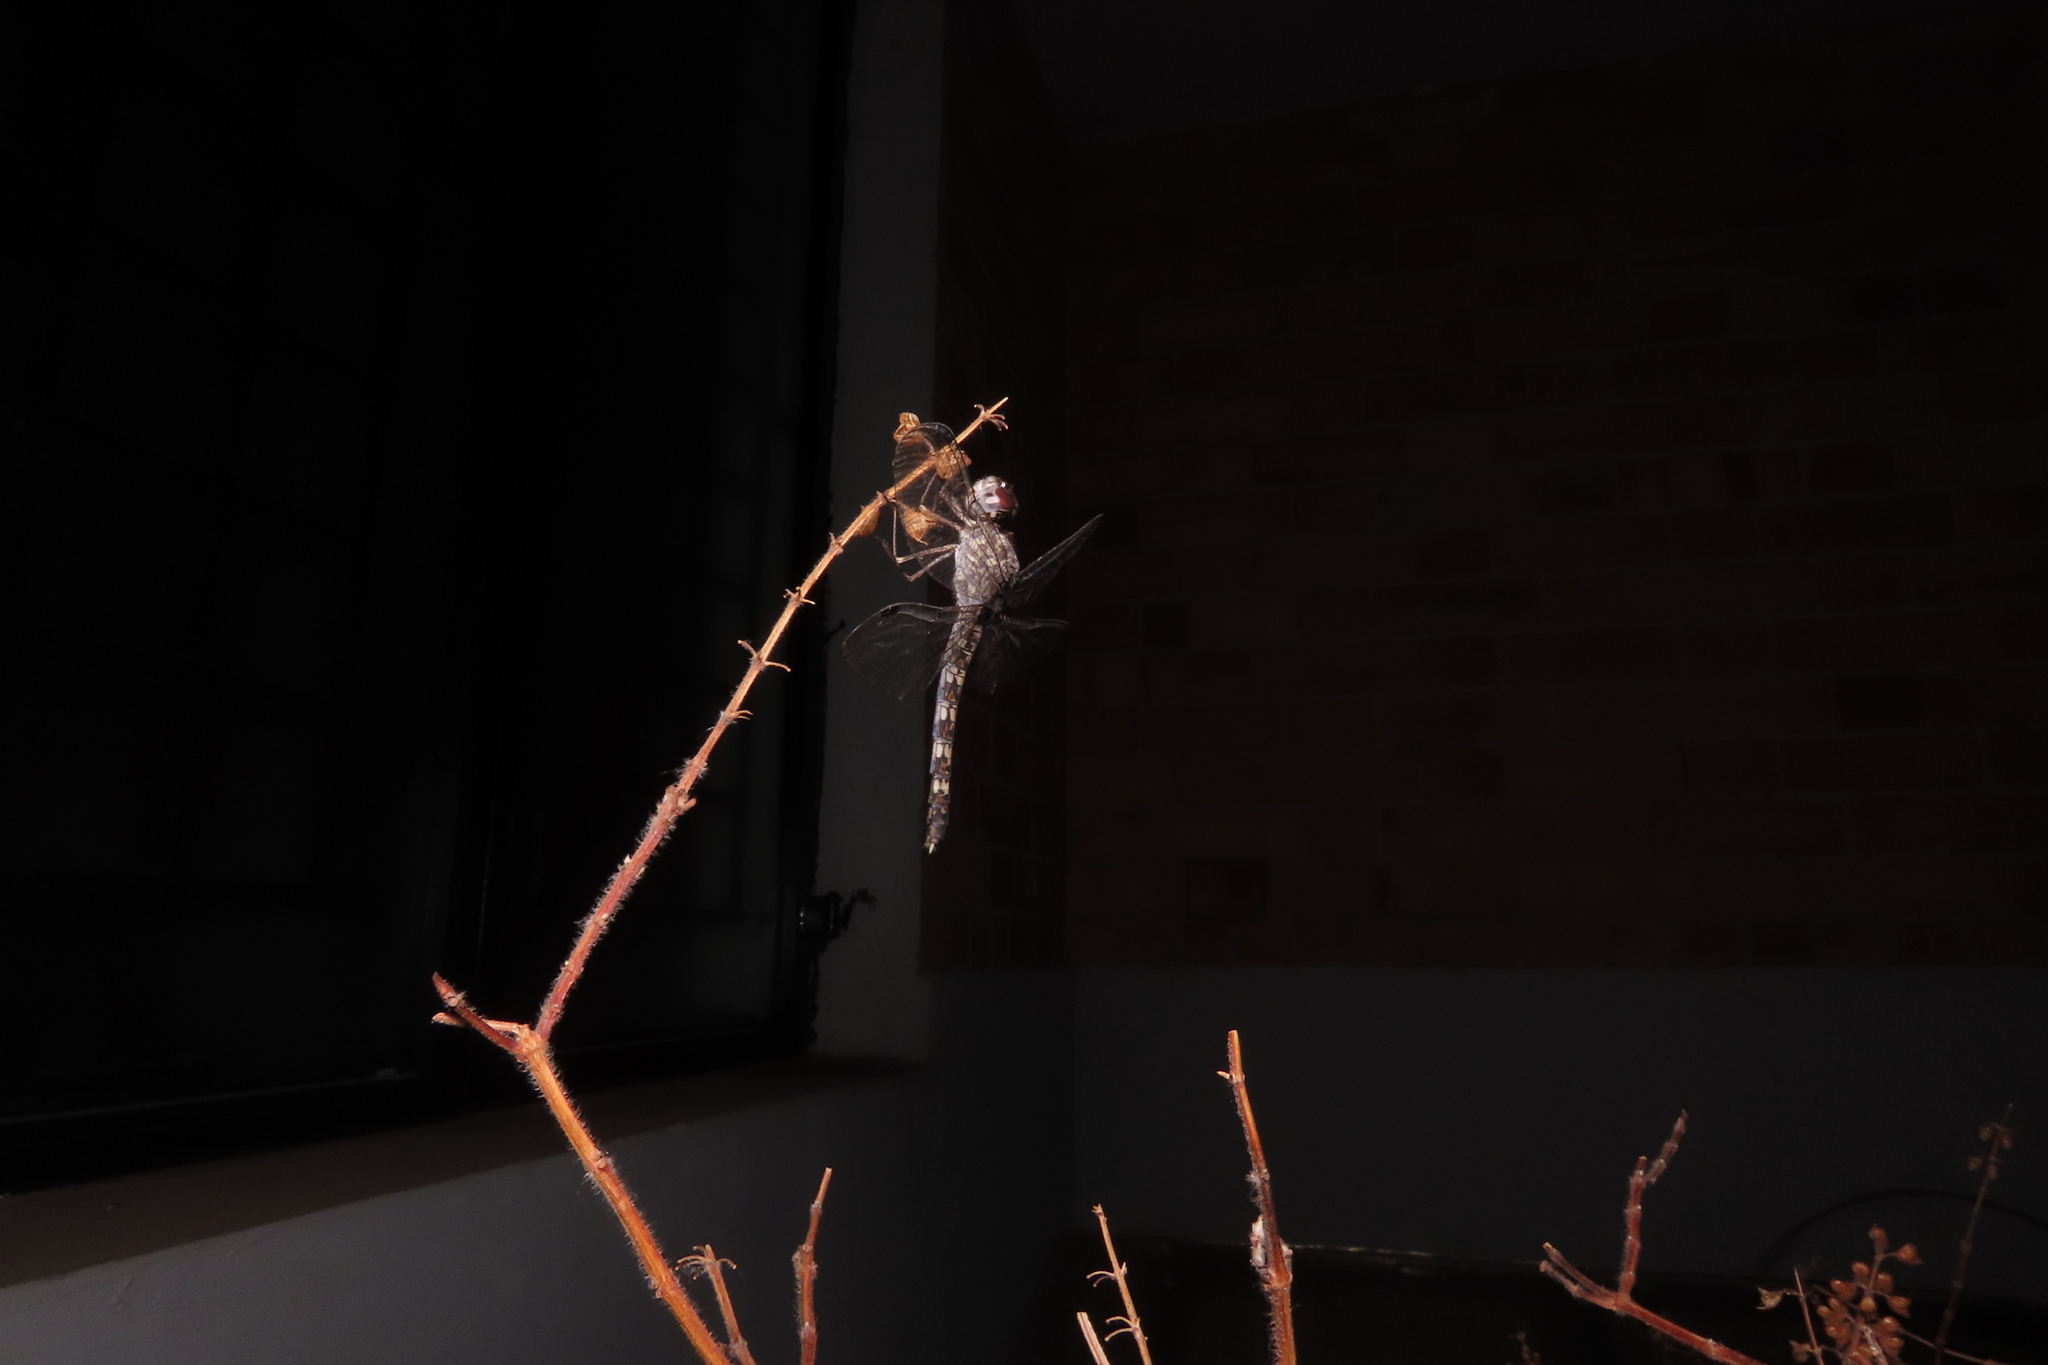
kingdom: Animalia
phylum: Arthropoda
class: Insecta
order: Odonata
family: Libellulidae
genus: Bradinopyga
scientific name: Bradinopyga geminata
